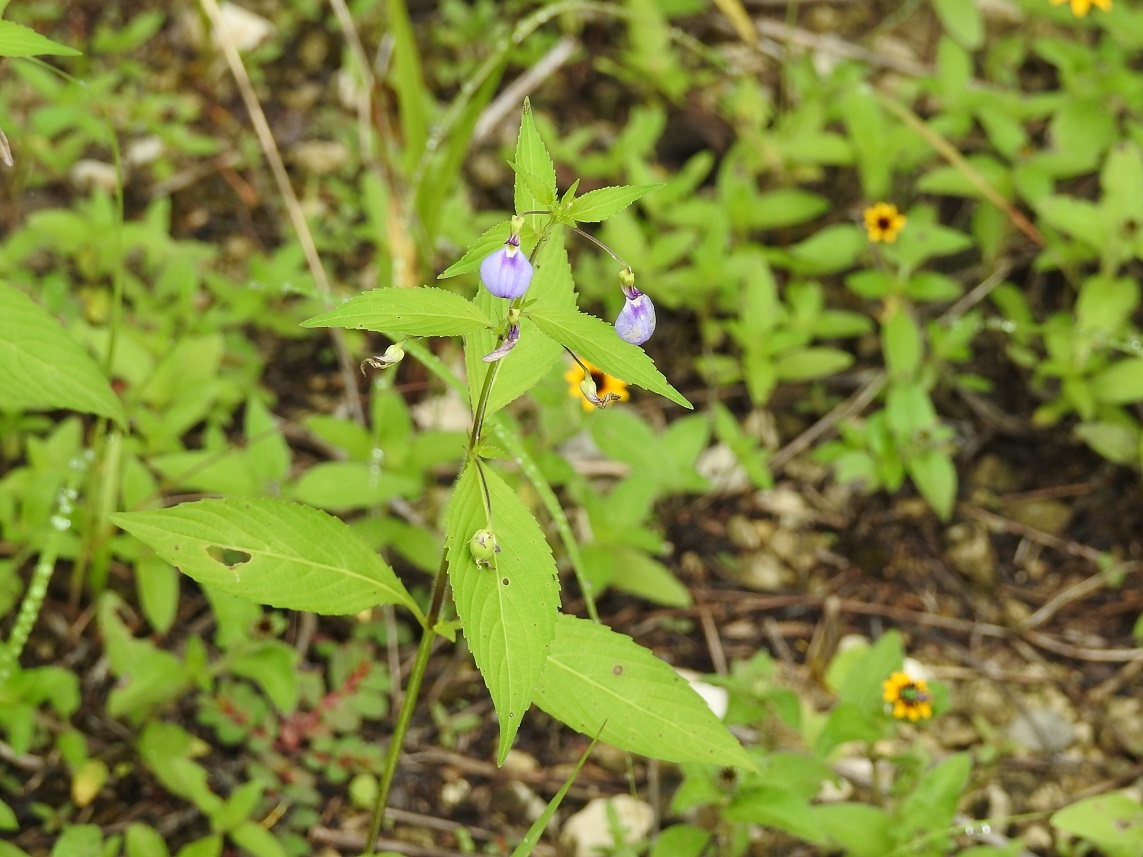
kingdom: Plantae
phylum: Tracheophyta
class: Magnoliopsida
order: Malpighiales
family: Violaceae
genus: Pombalia
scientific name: Pombalia glabra
